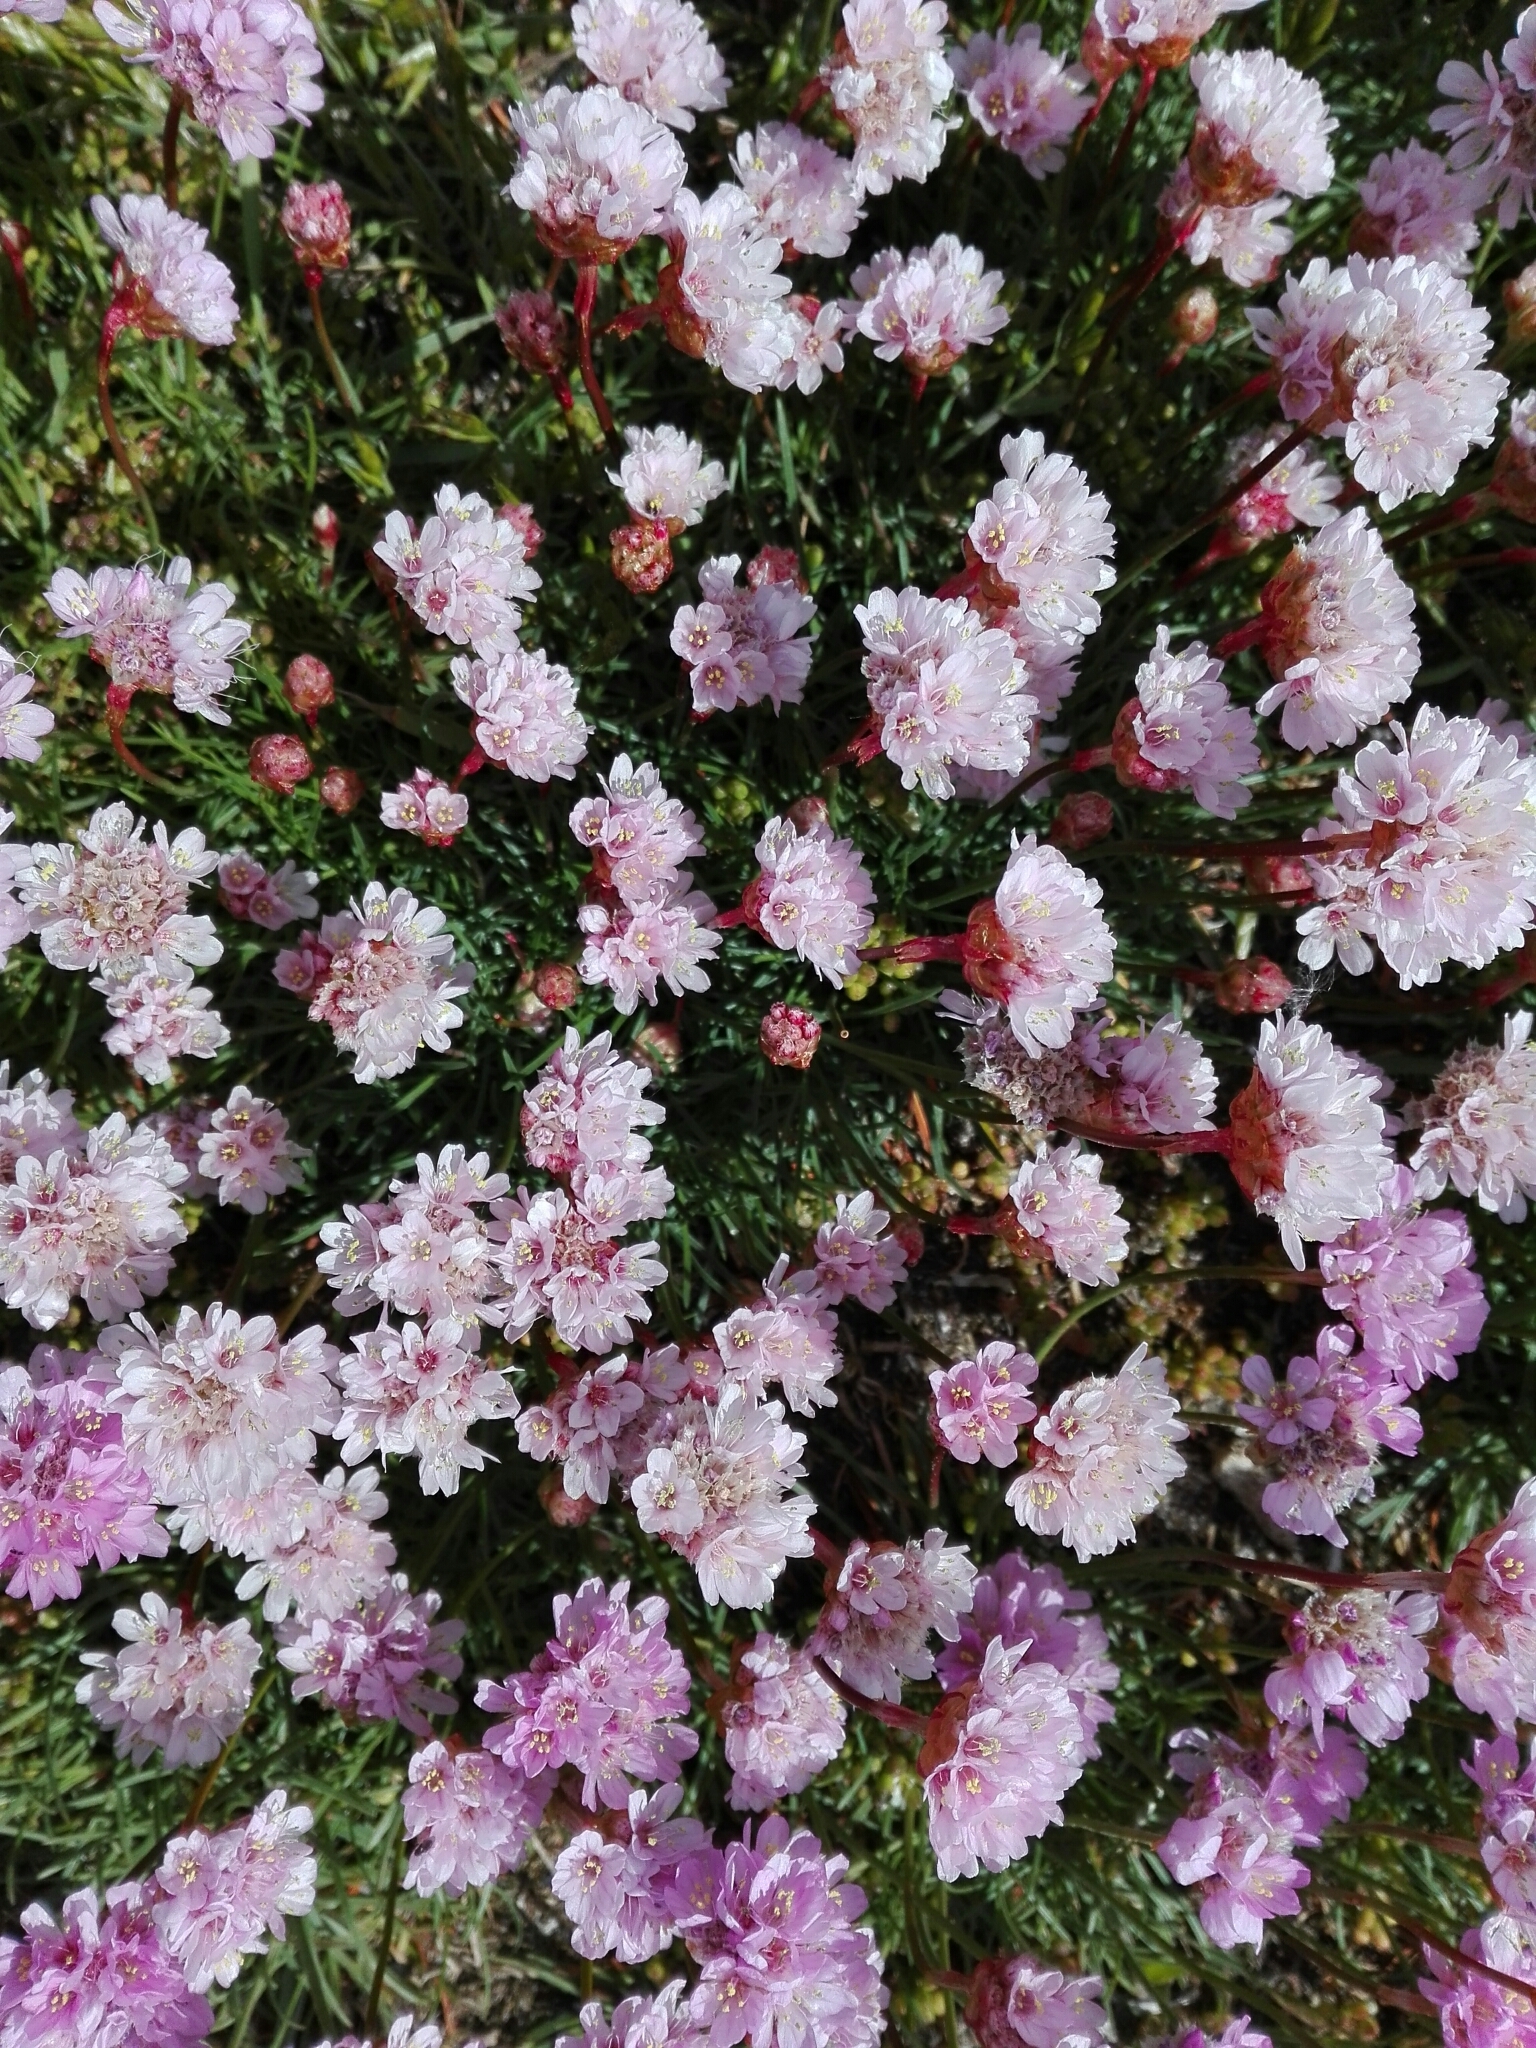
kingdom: Plantae
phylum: Tracheophyta
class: Magnoliopsida
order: Caryophyllales
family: Plumbaginaceae
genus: Armeria
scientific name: Armeria maritima
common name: Thrift
